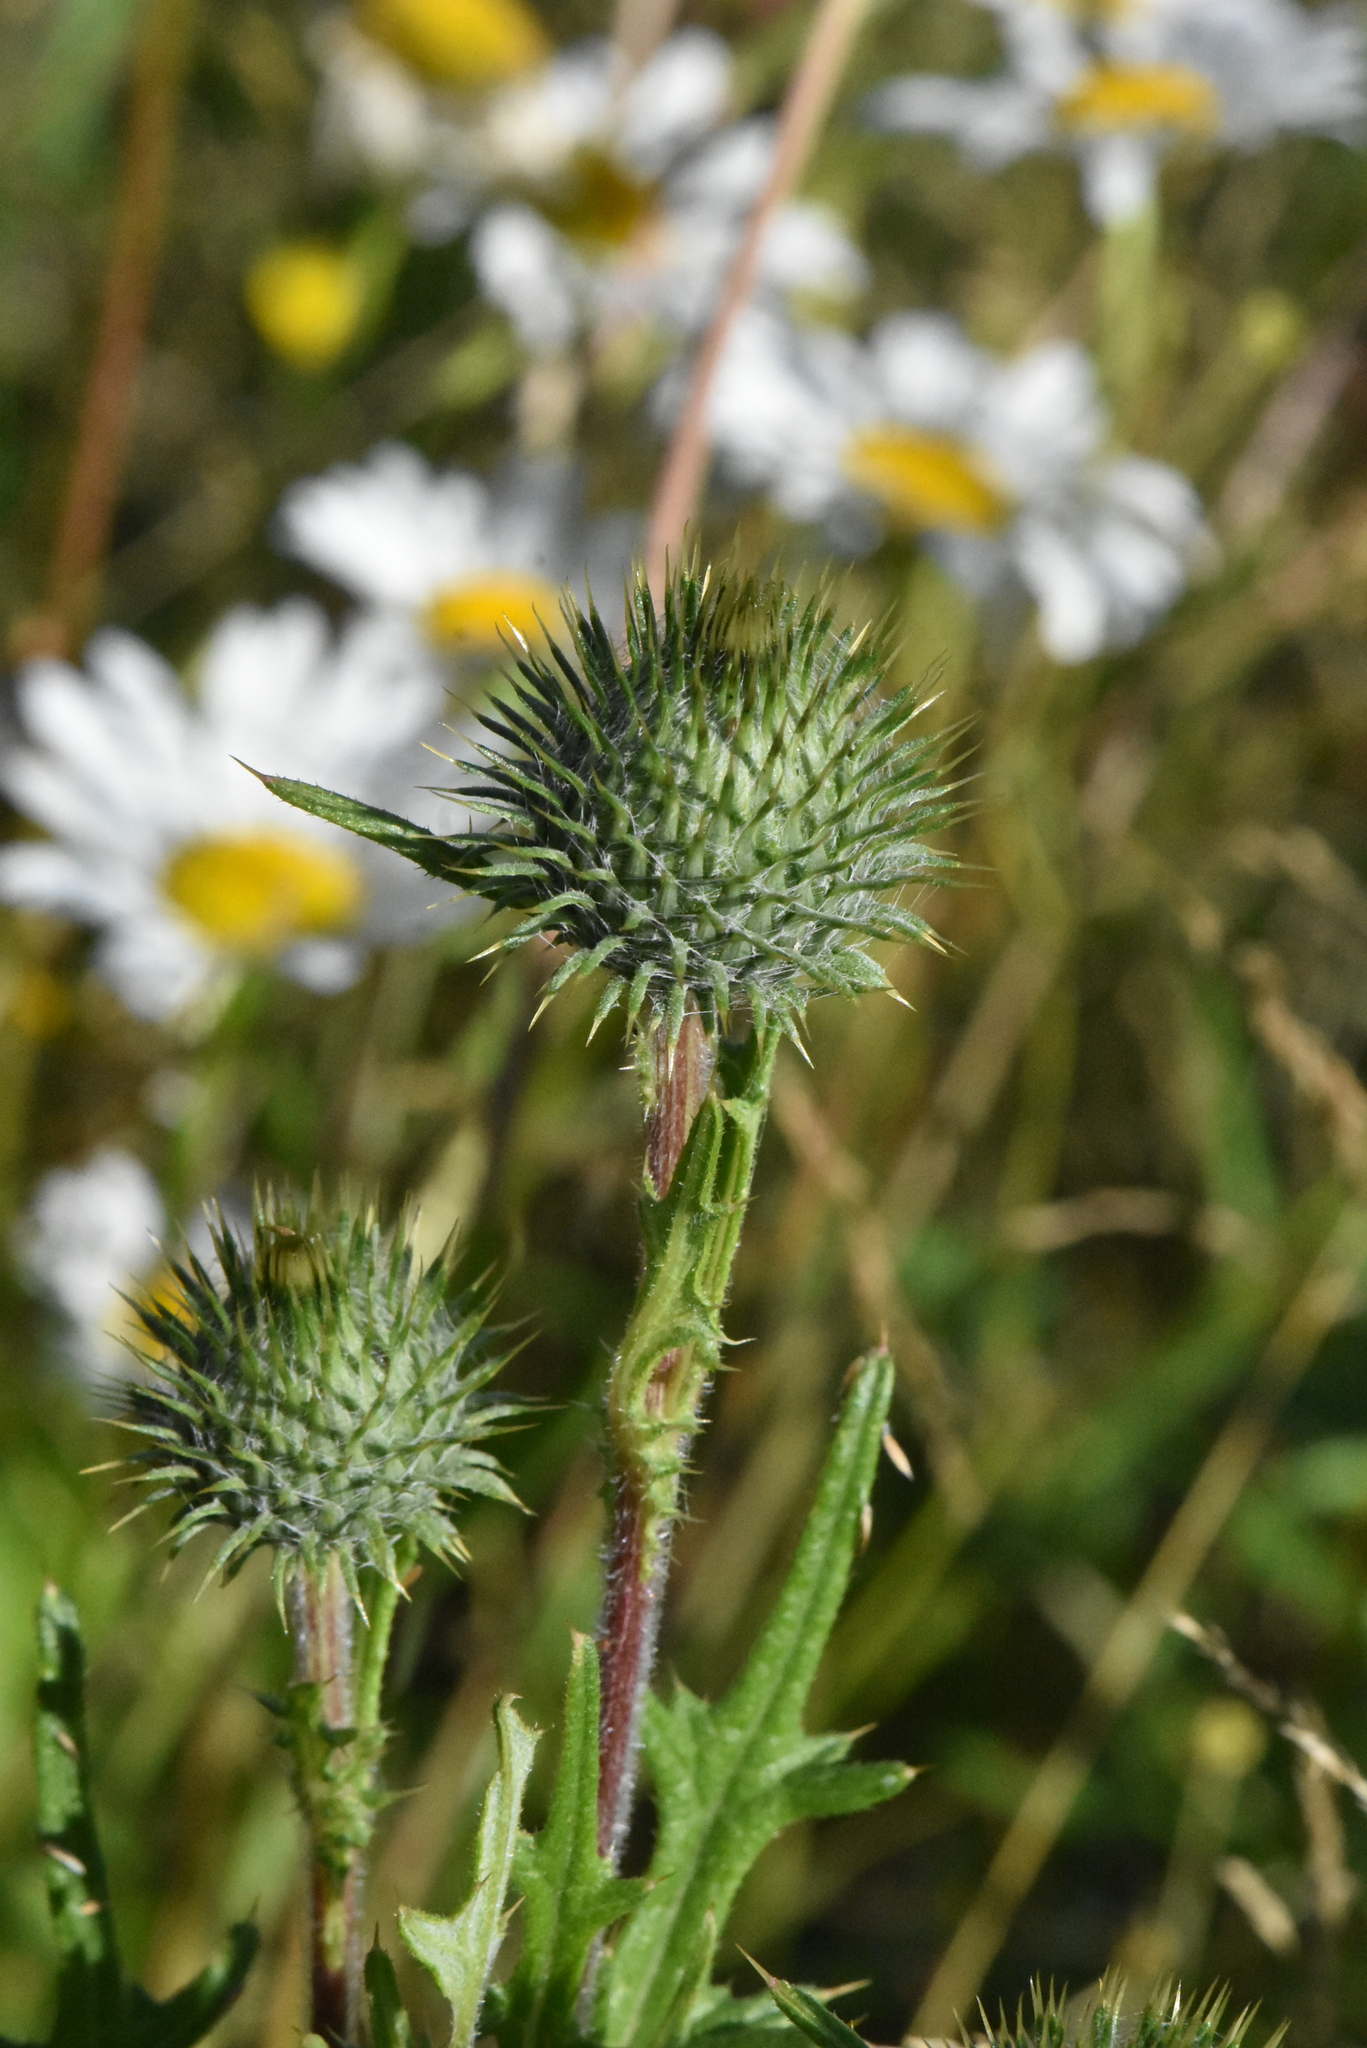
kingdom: Plantae
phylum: Tracheophyta
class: Magnoliopsida
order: Asterales
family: Asteraceae
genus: Cirsium
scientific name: Cirsium vulgare
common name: Bull thistle
